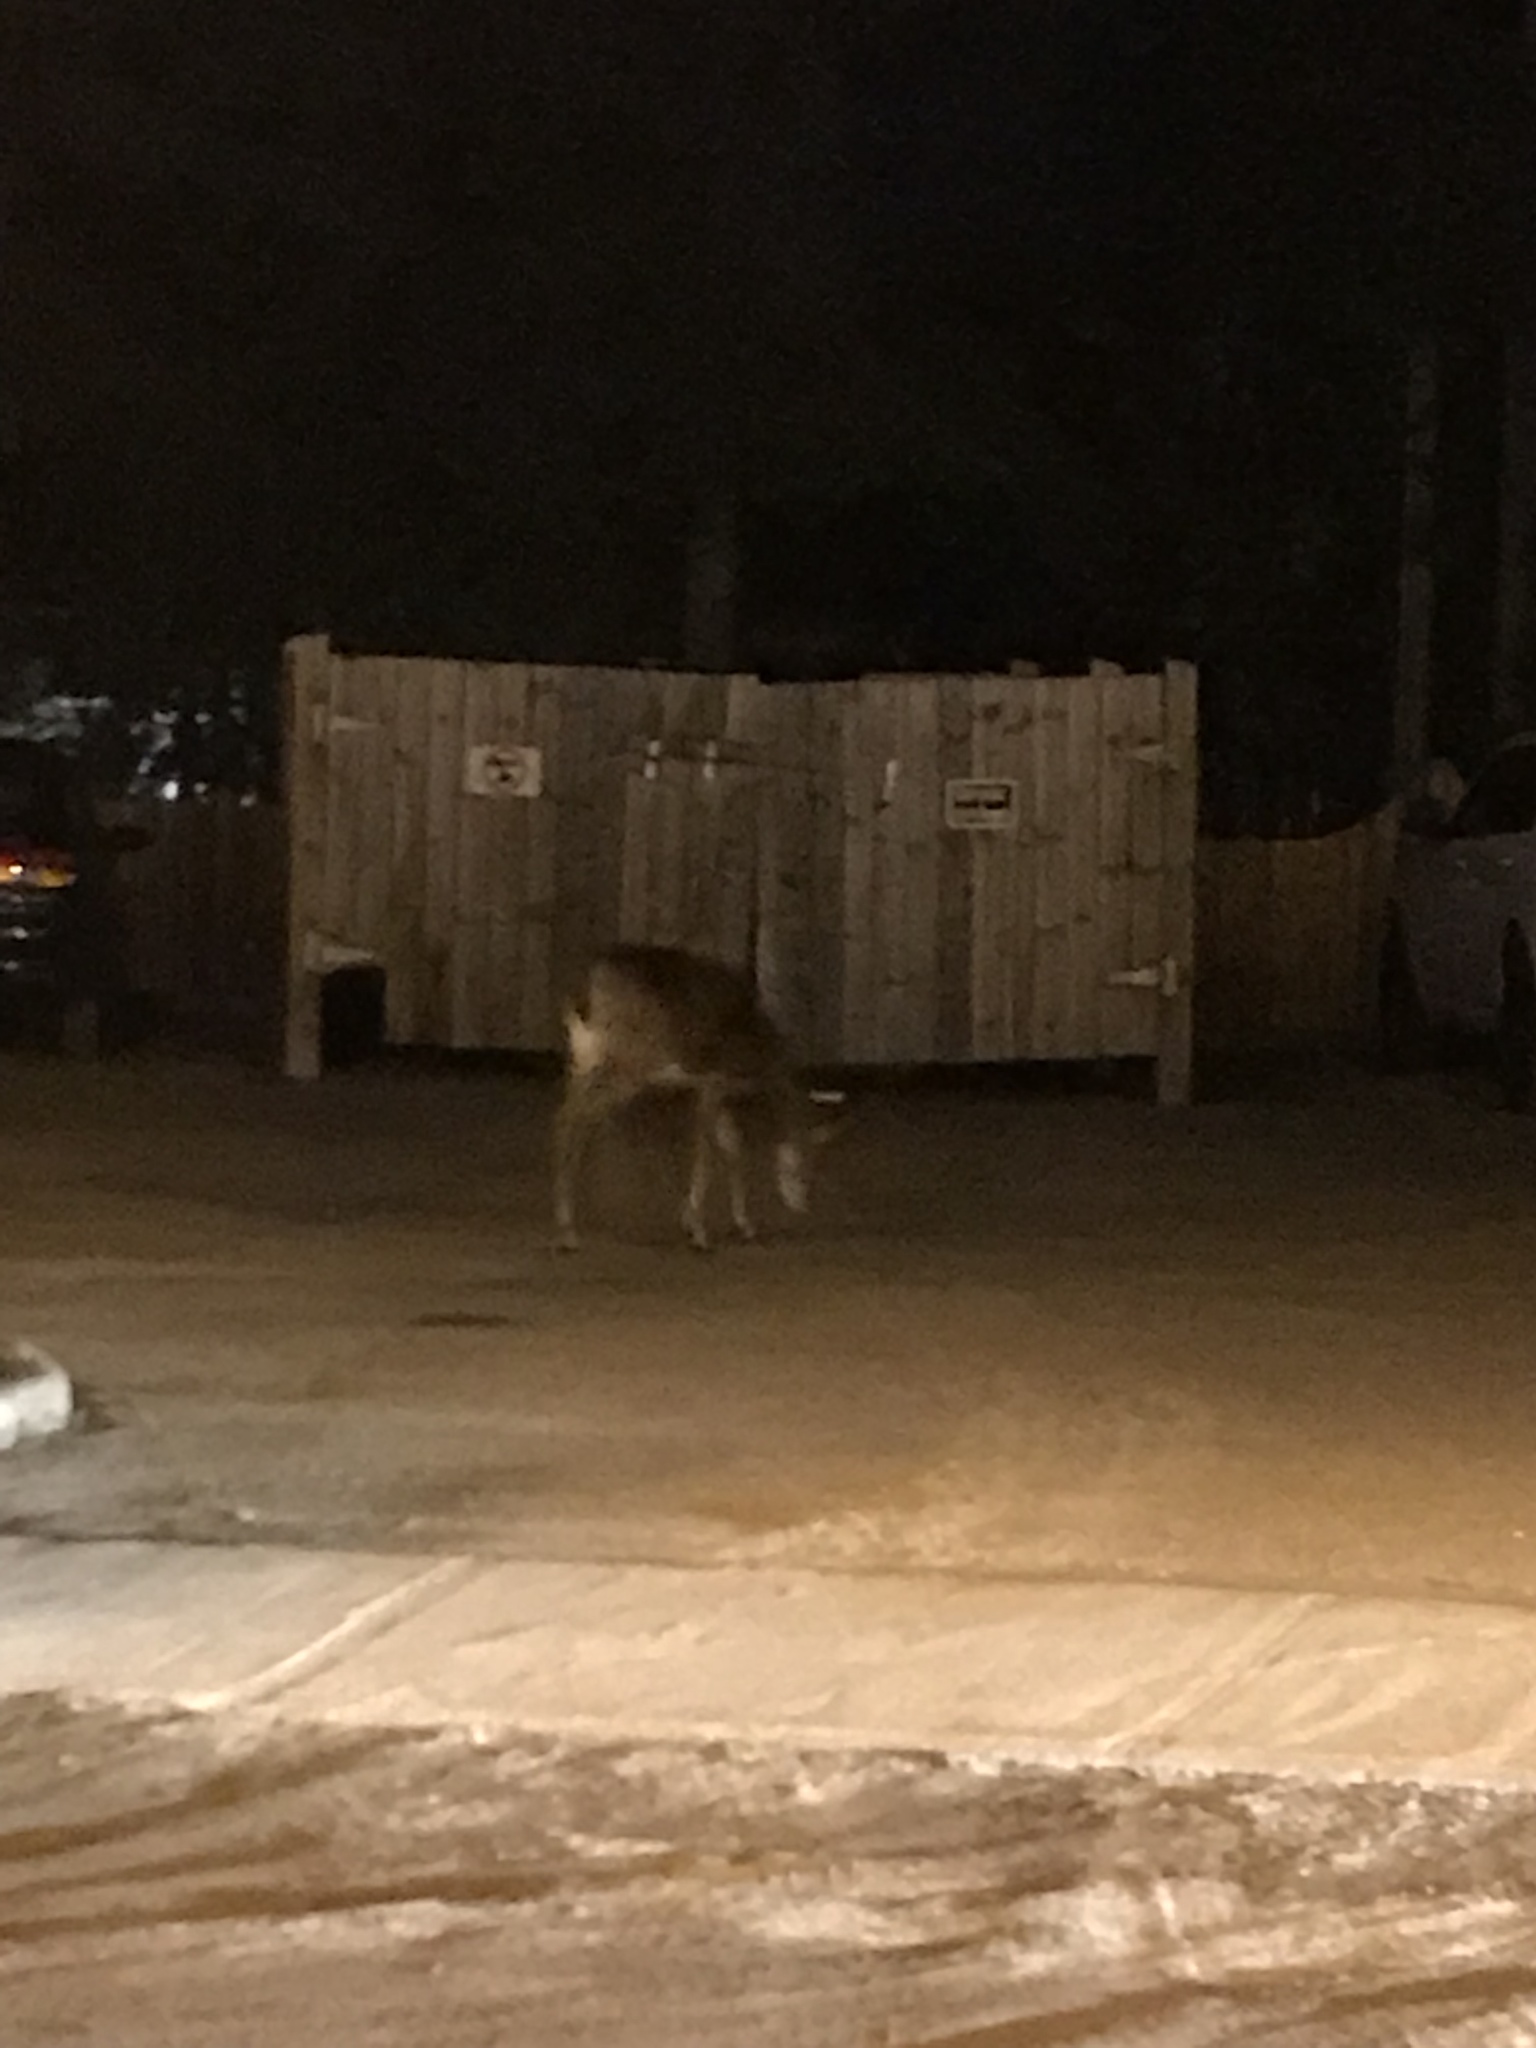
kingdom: Animalia
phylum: Chordata
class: Mammalia
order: Artiodactyla
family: Cervidae
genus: Odocoileus
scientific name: Odocoileus virginianus
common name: White-tailed deer
